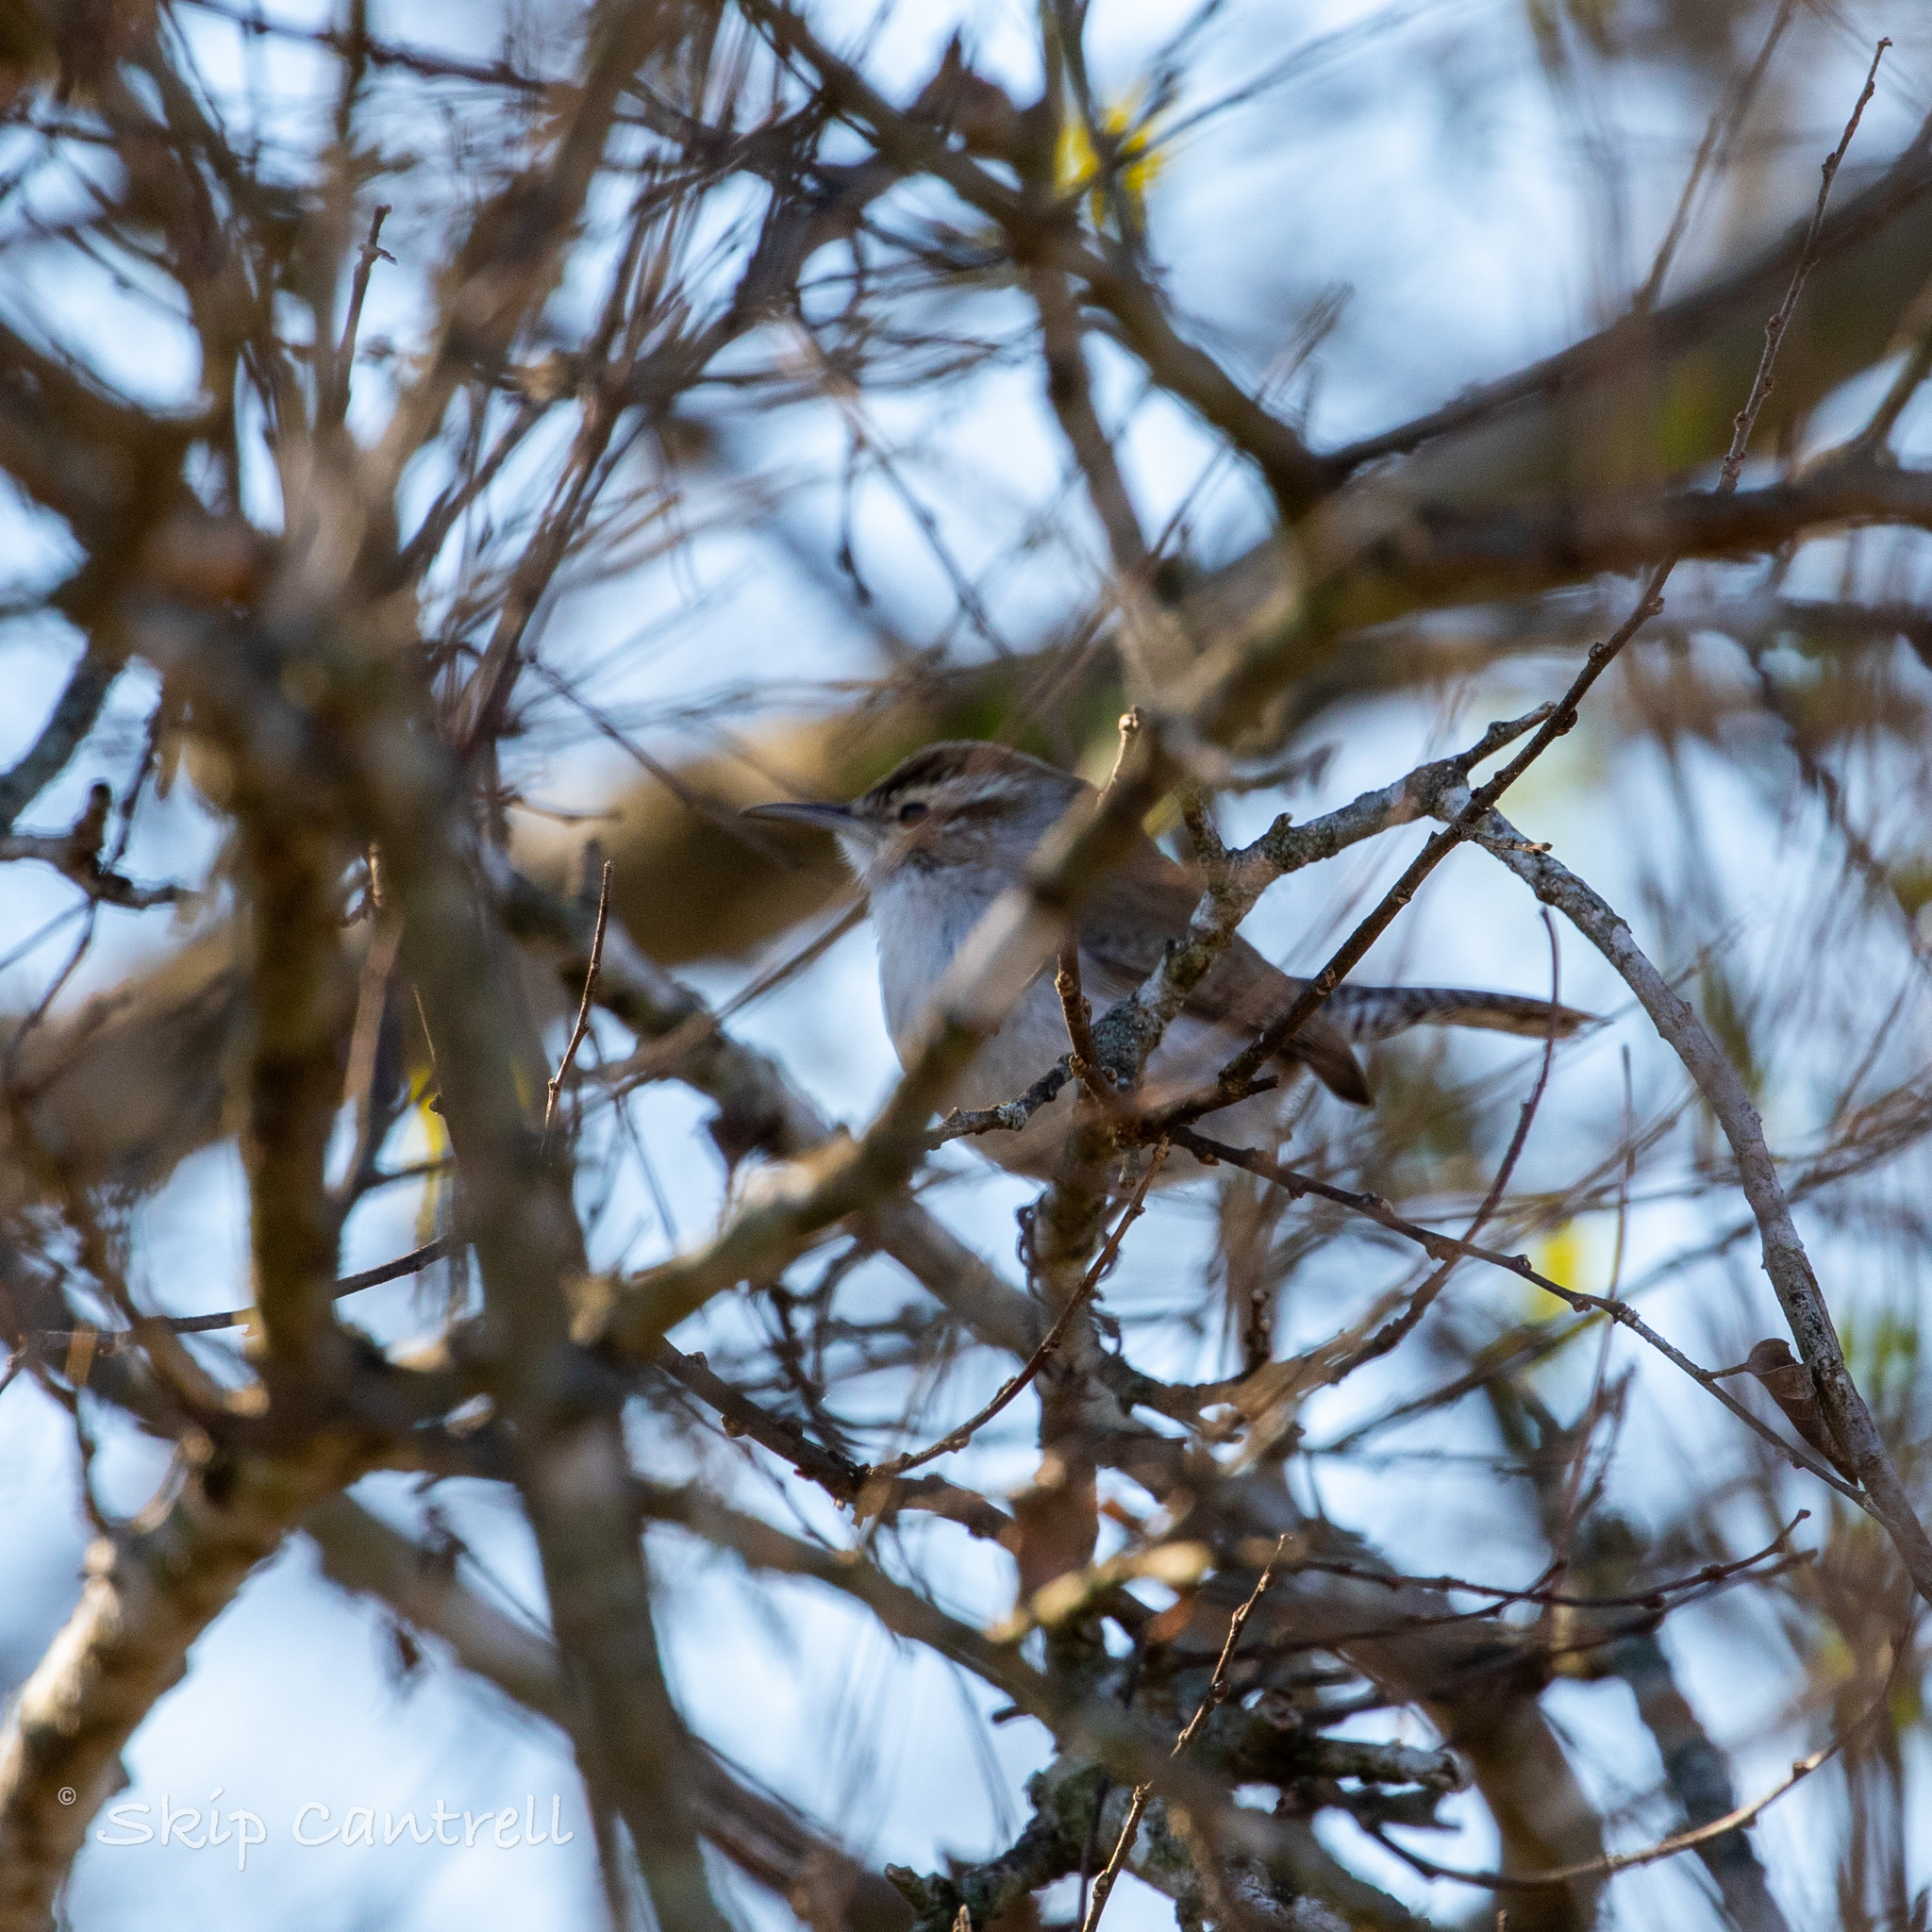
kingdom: Animalia
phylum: Chordata
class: Aves
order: Passeriformes
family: Troglodytidae
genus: Thryomanes
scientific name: Thryomanes bewickii
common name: Bewick's wren
